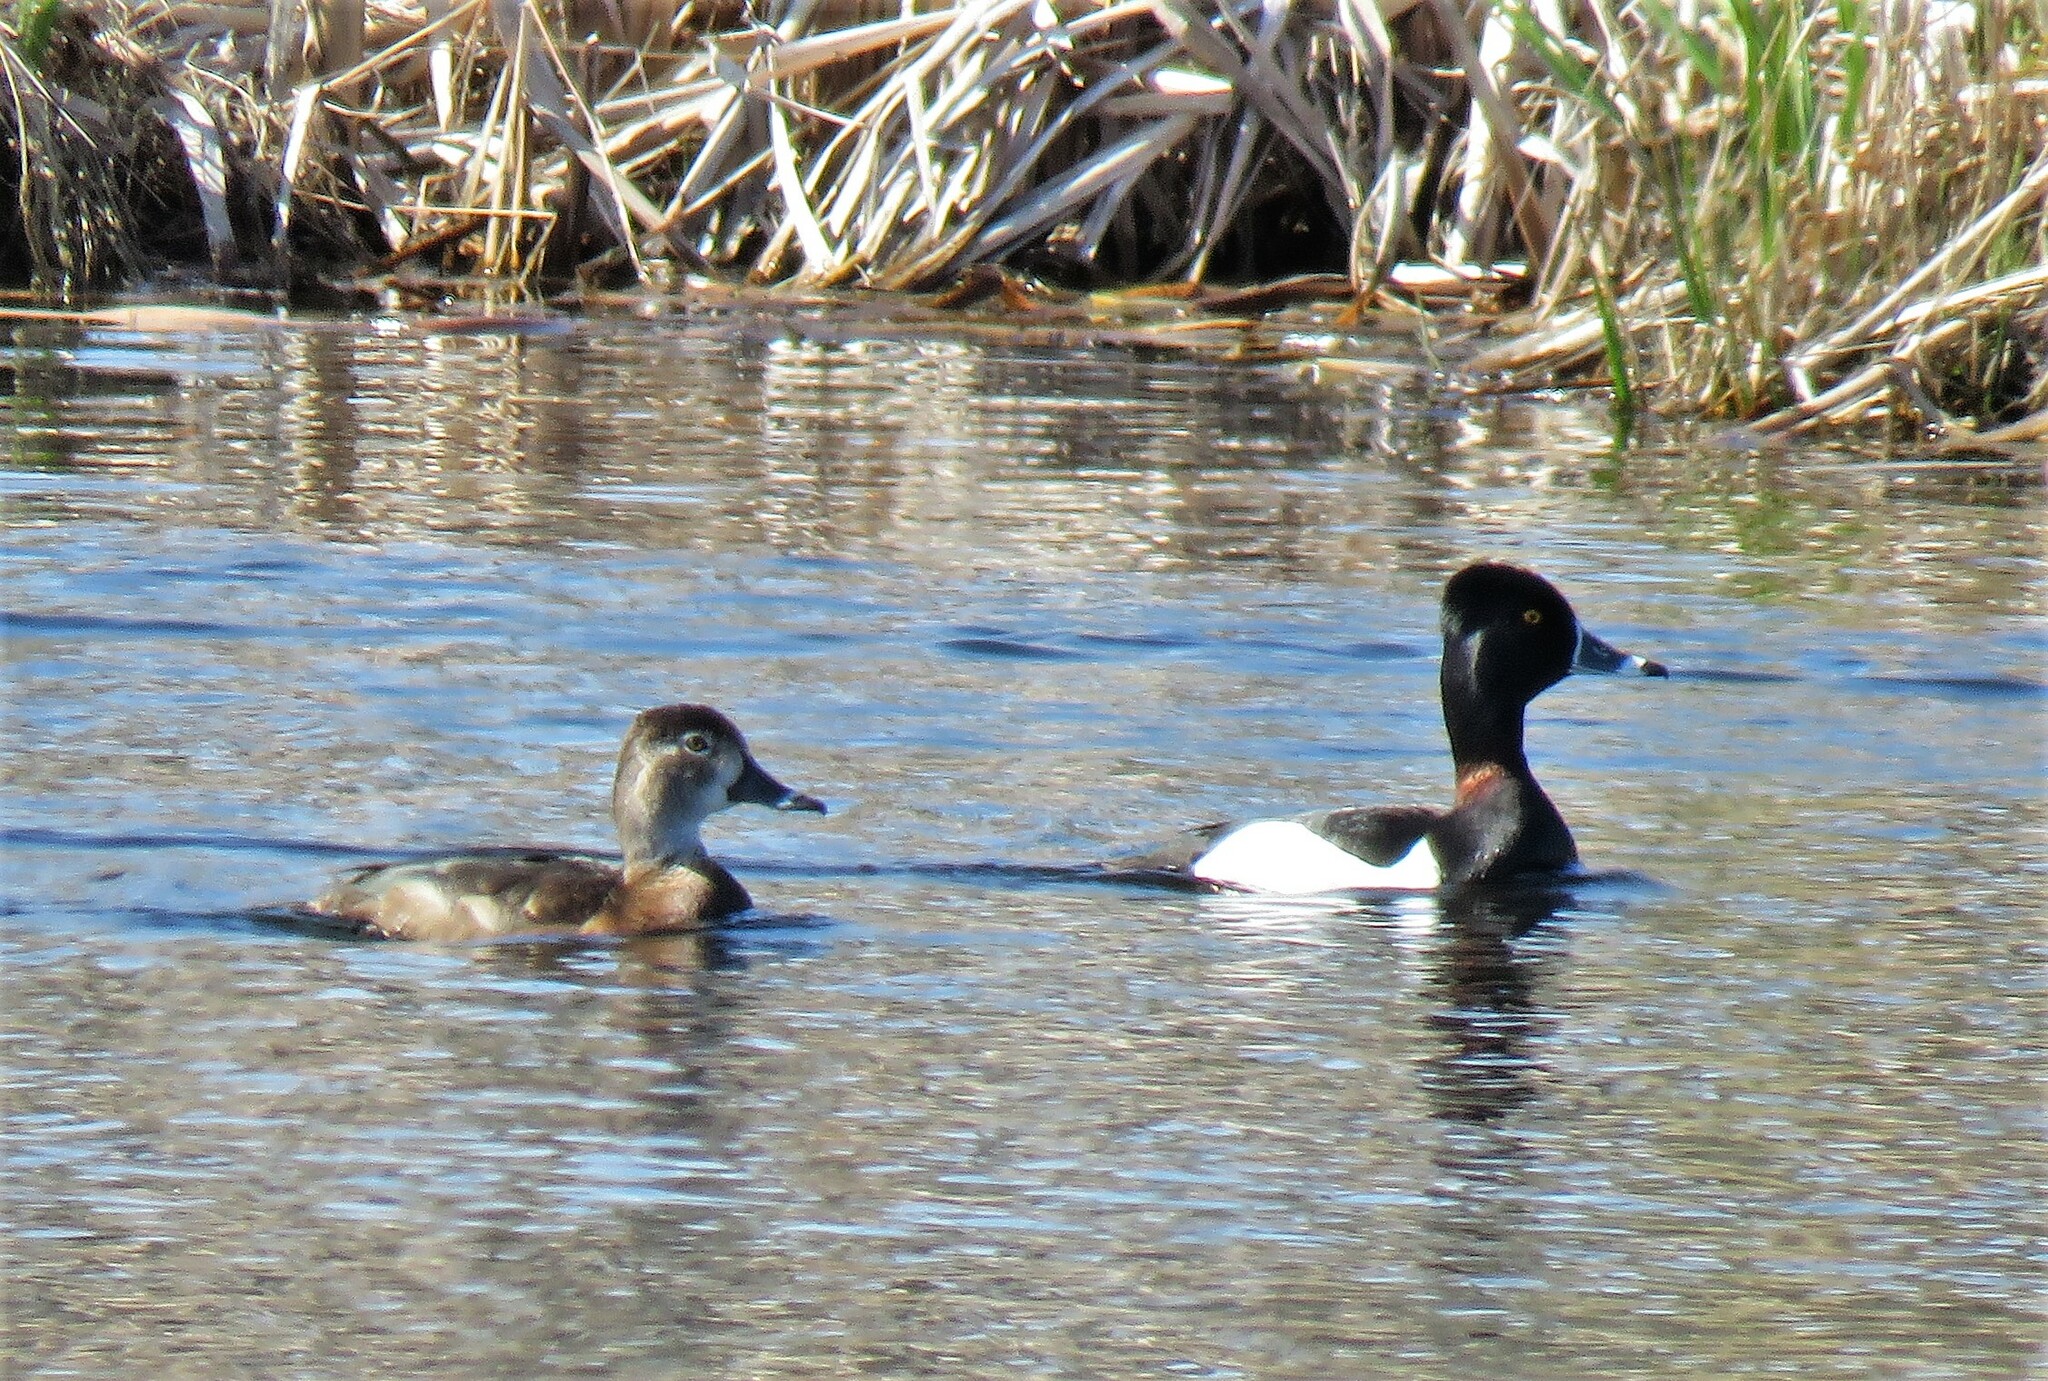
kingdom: Animalia
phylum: Chordata
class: Aves
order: Anseriformes
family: Anatidae
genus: Aythya
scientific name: Aythya collaris
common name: Ring-necked duck
